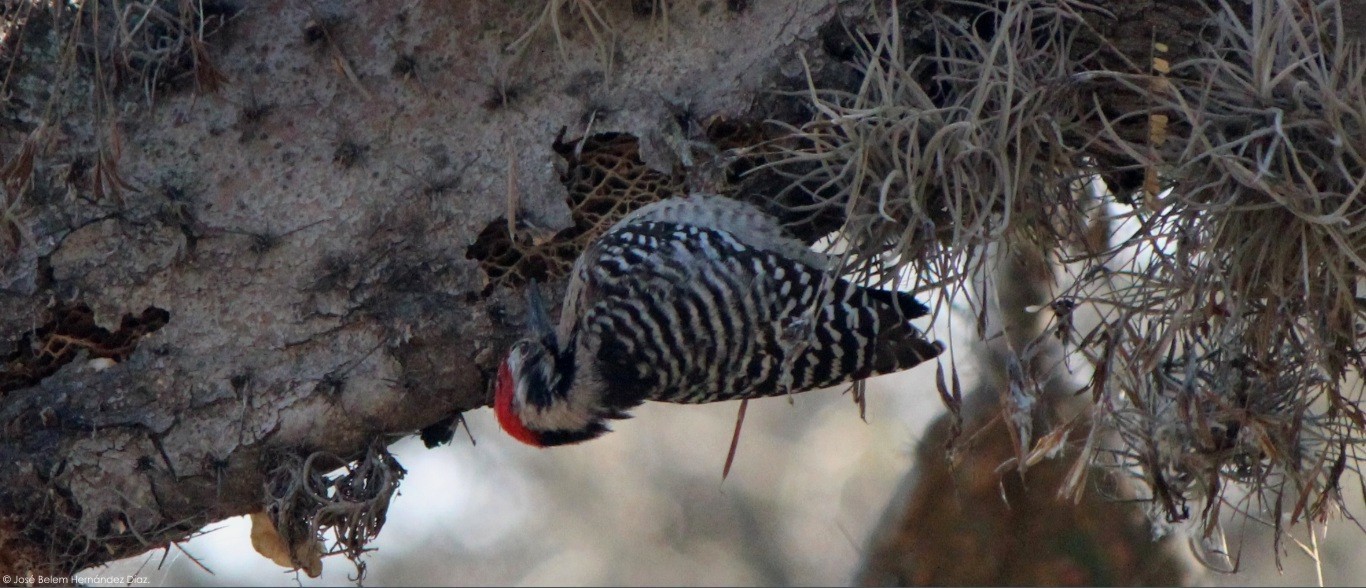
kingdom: Animalia
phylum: Chordata
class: Aves
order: Piciformes
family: Picidae
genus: Dryobates
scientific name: Dryobates scalaris
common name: Ladder-backed woodpecker
